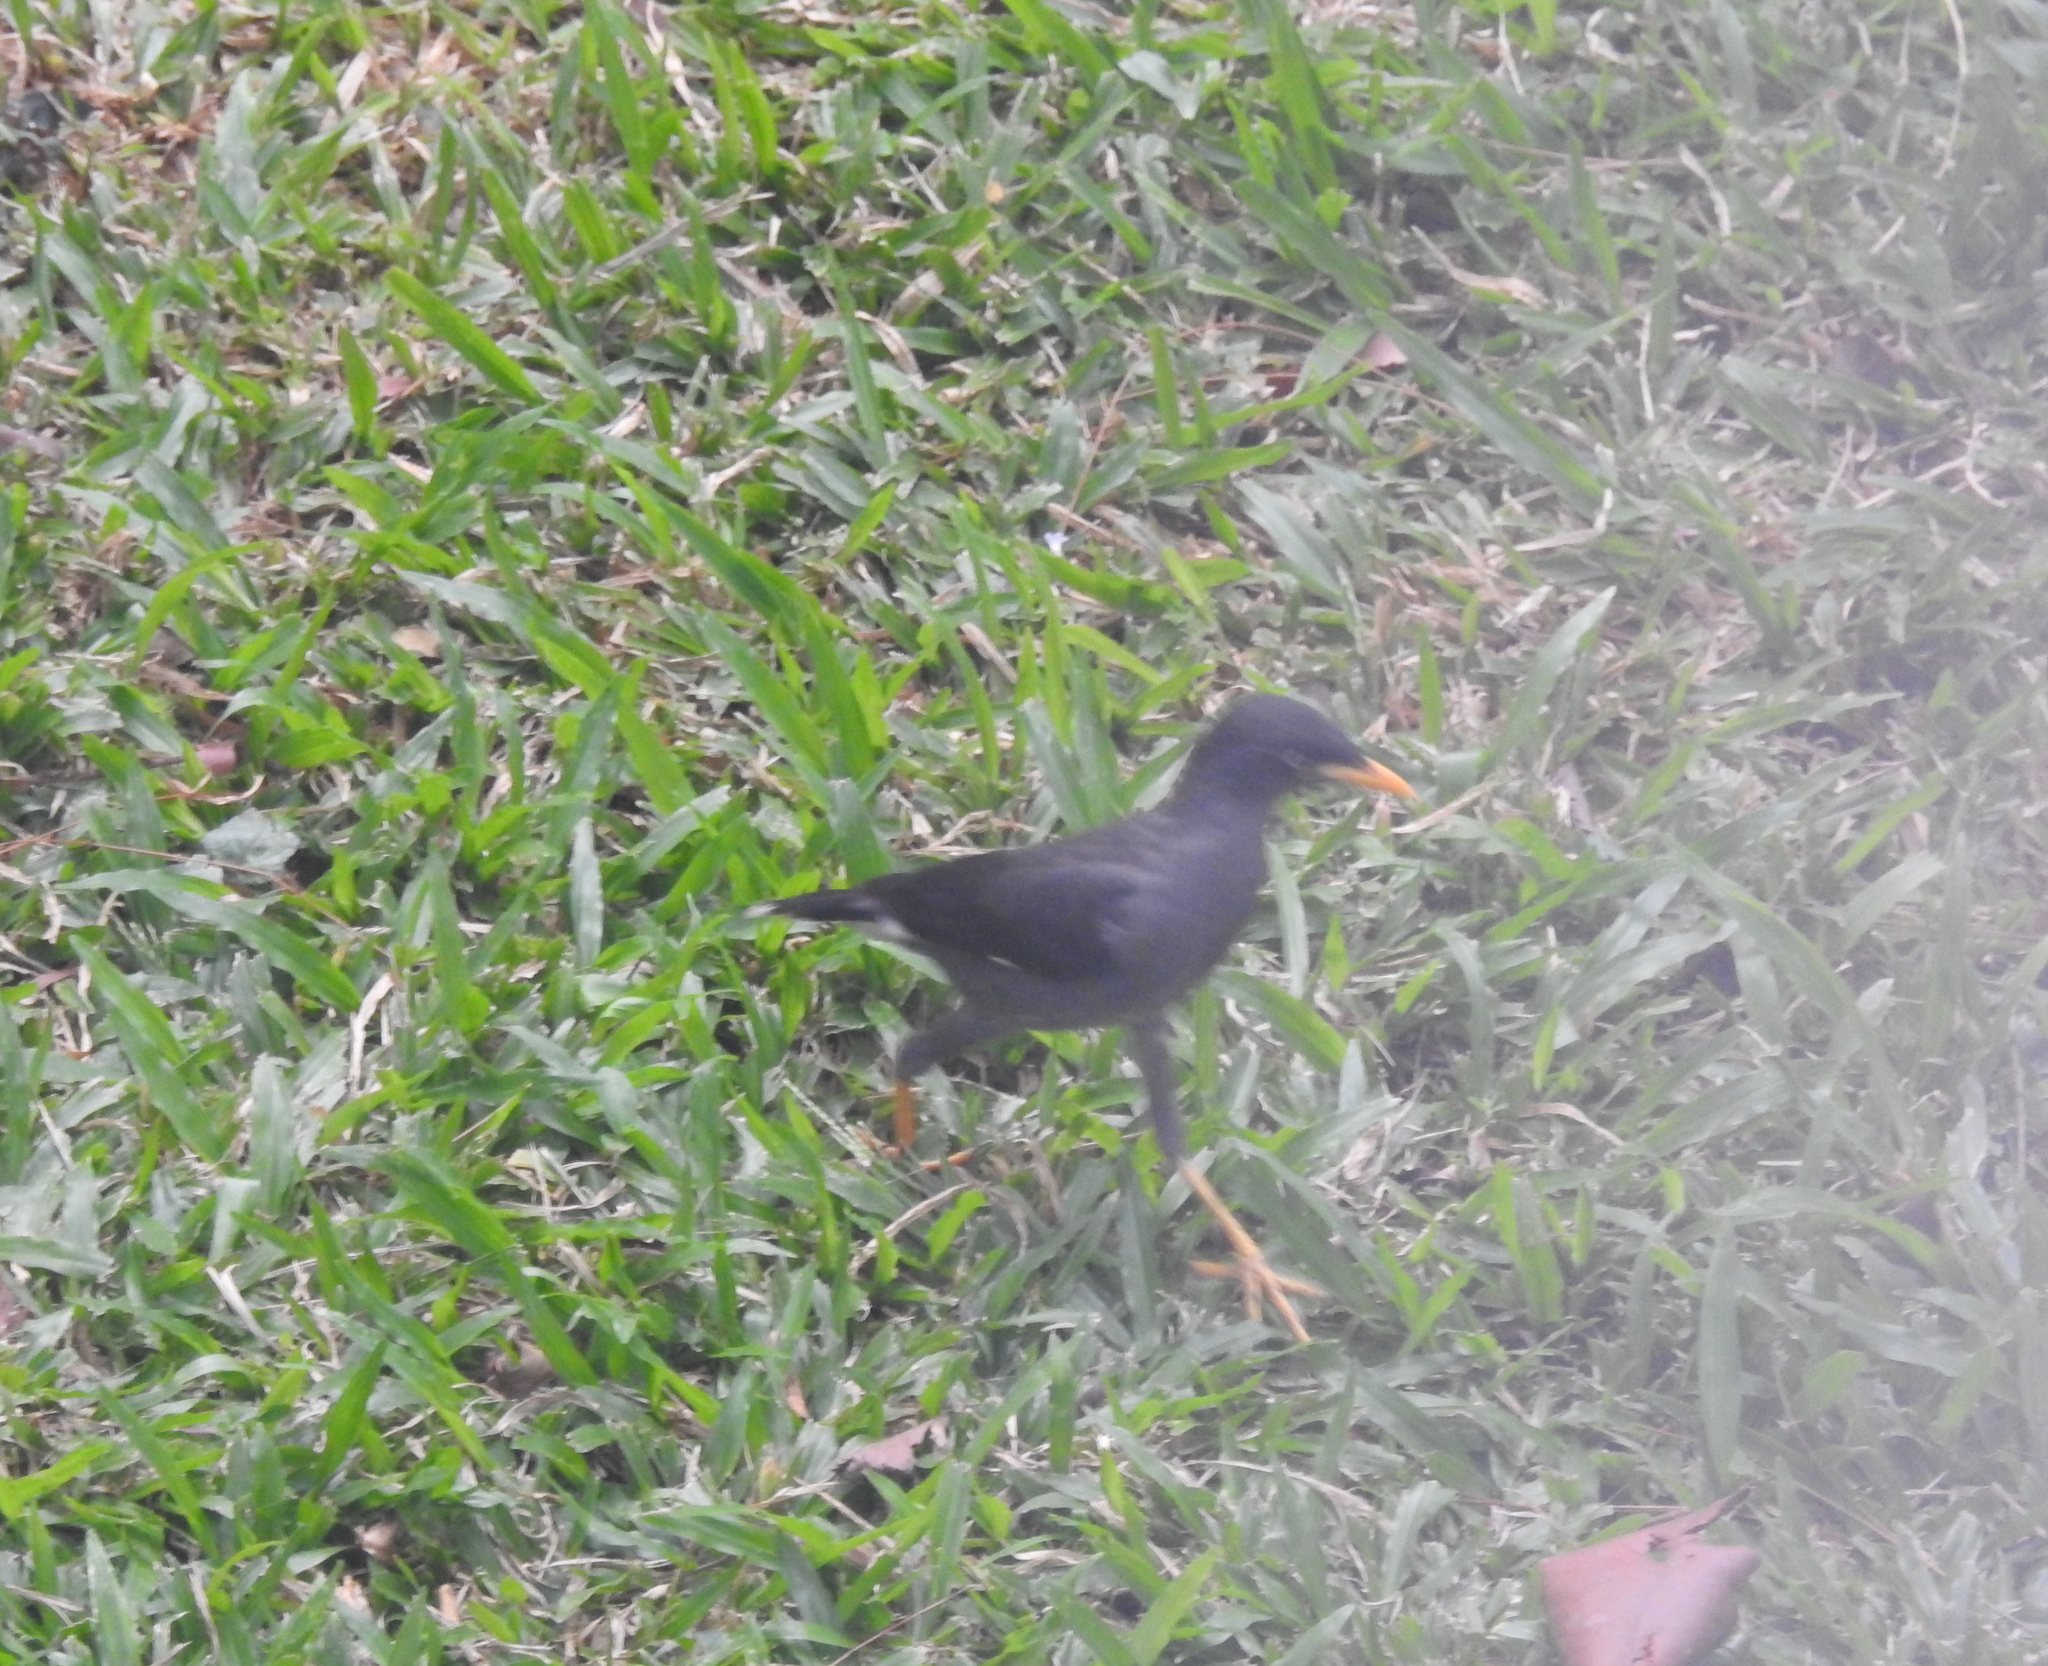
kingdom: Animalia
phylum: Chordata
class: Aves
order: Passeriformes
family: Sturnidae
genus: Acridotheres
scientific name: Acridotheres javanicus
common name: Javan myna
